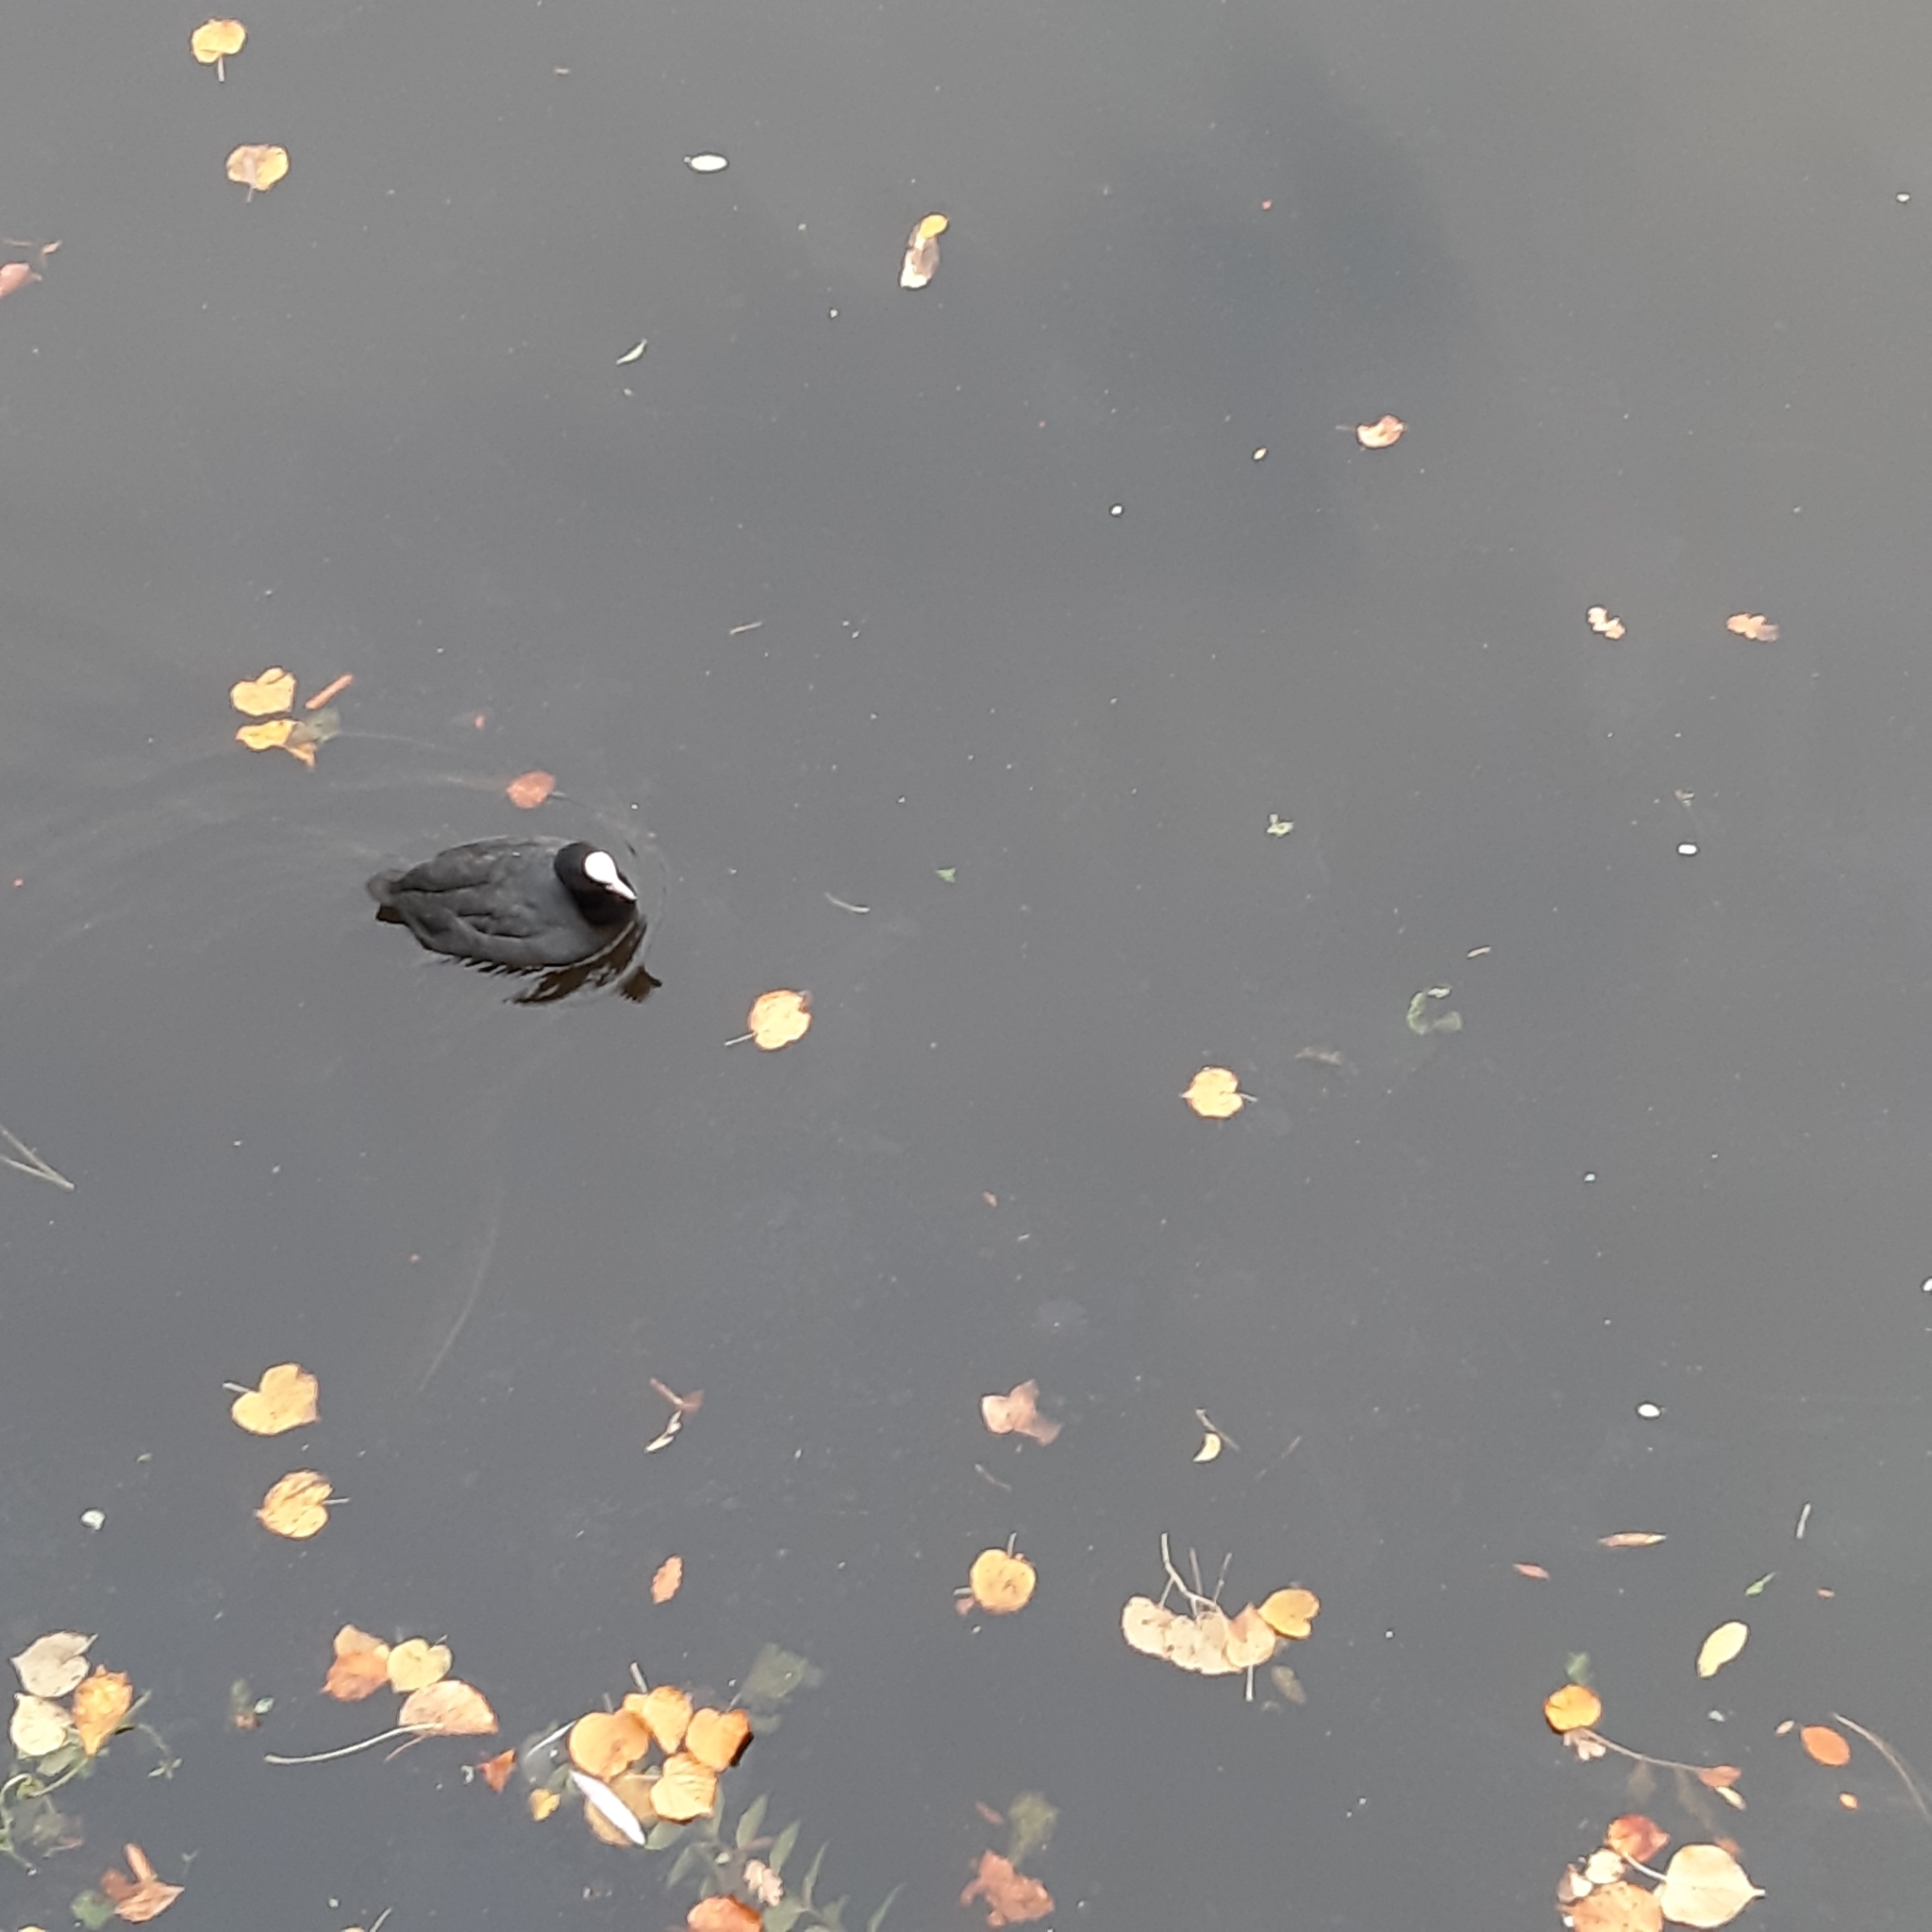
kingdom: Animalia
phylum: Chordata
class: Aves
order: Gruiformes
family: Rallidae
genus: Fulica
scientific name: Fulica atra
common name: Eurasian coot
